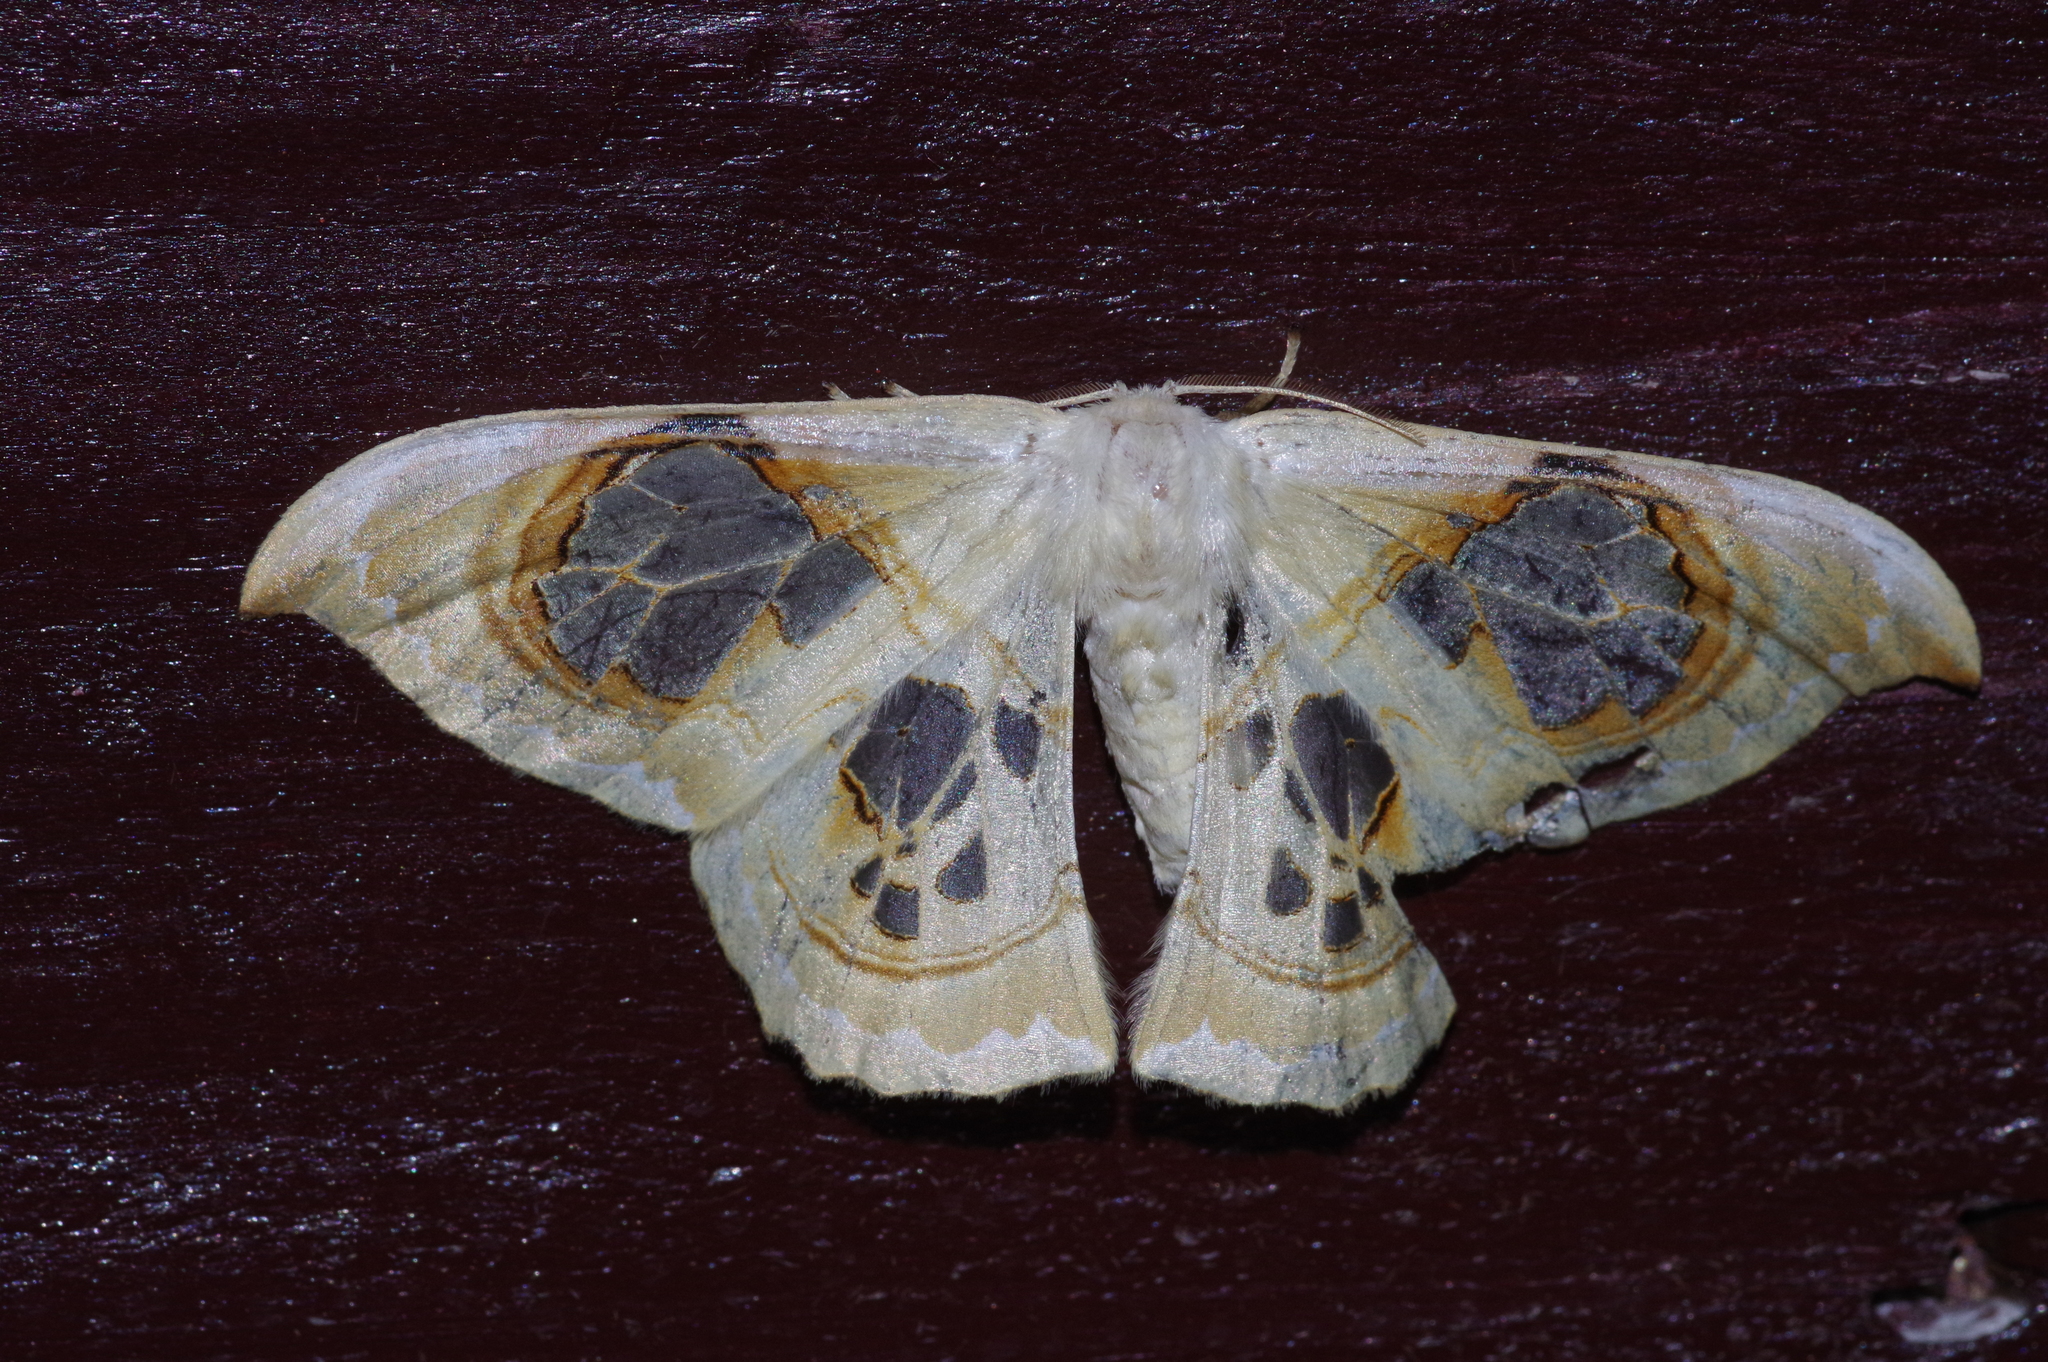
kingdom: Animalia
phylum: Arthropoda
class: Insecta
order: Lepidoptera
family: Drepanidae
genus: Macrauzata
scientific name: Macrauzata maxima
